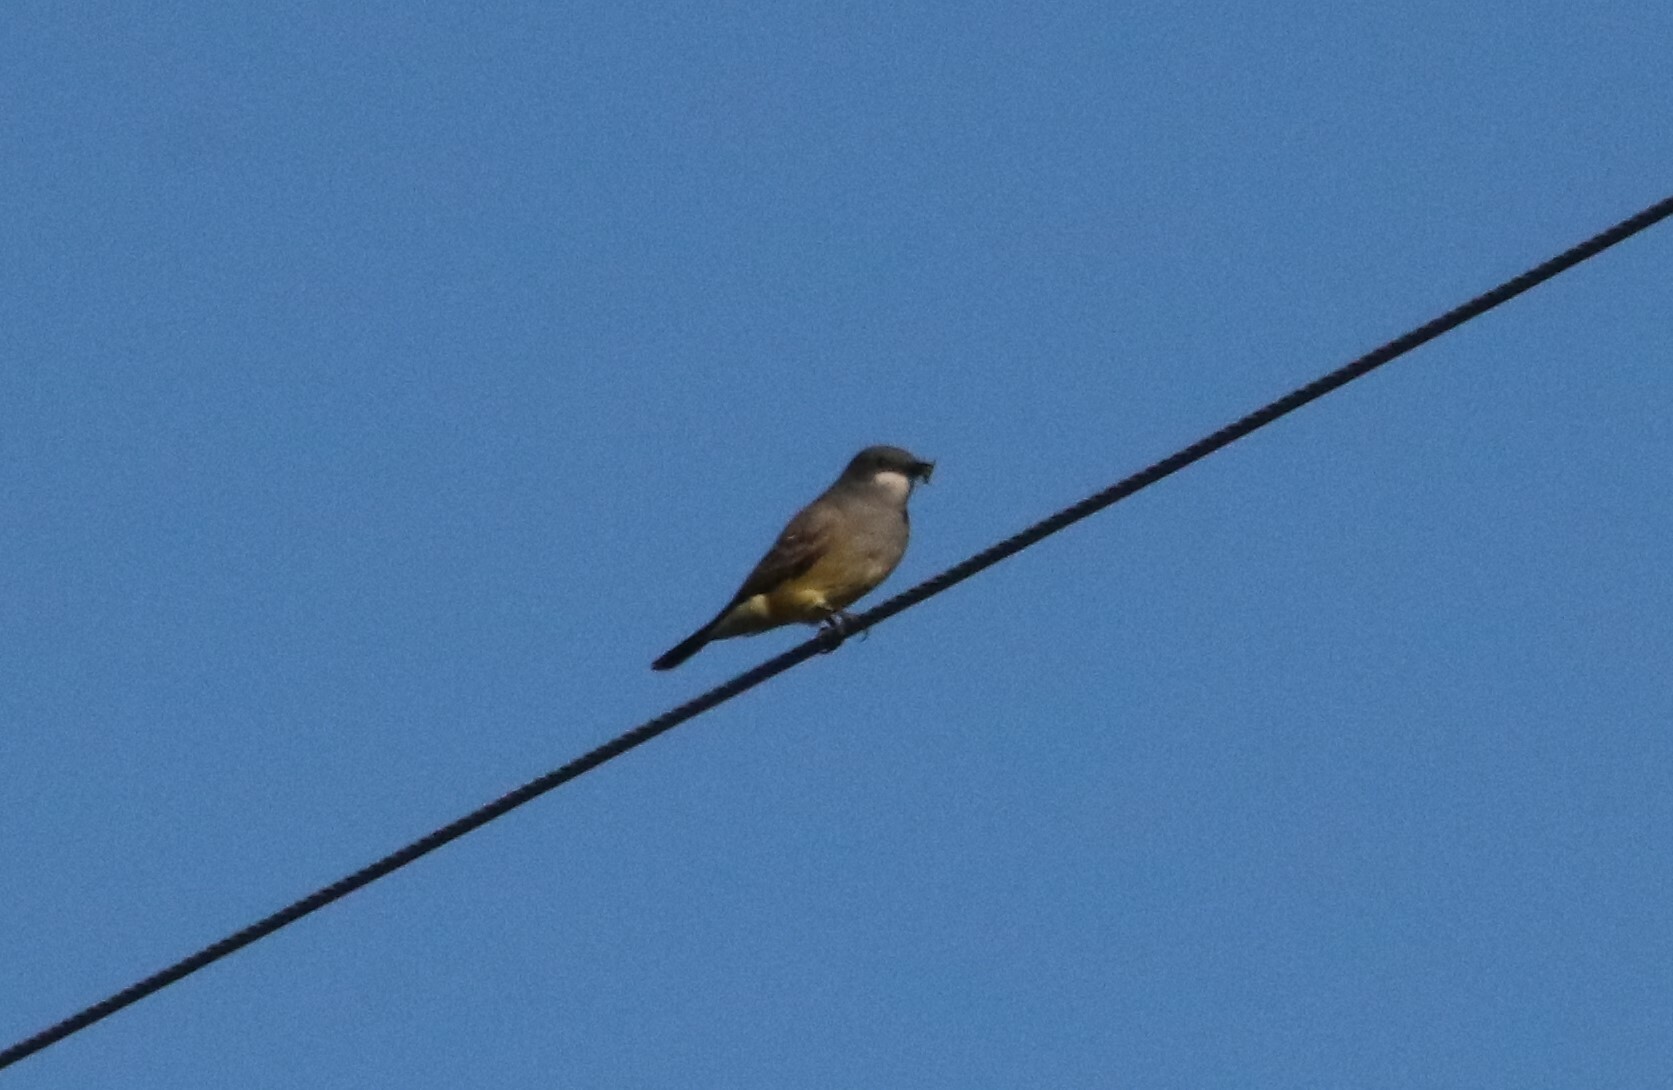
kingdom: Animalia
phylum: Chordata
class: Aves
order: Passeriformes
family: Tyrannidae
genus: Tyrannus
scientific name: Tyrannus vociferans
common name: Cassin's kingbird
